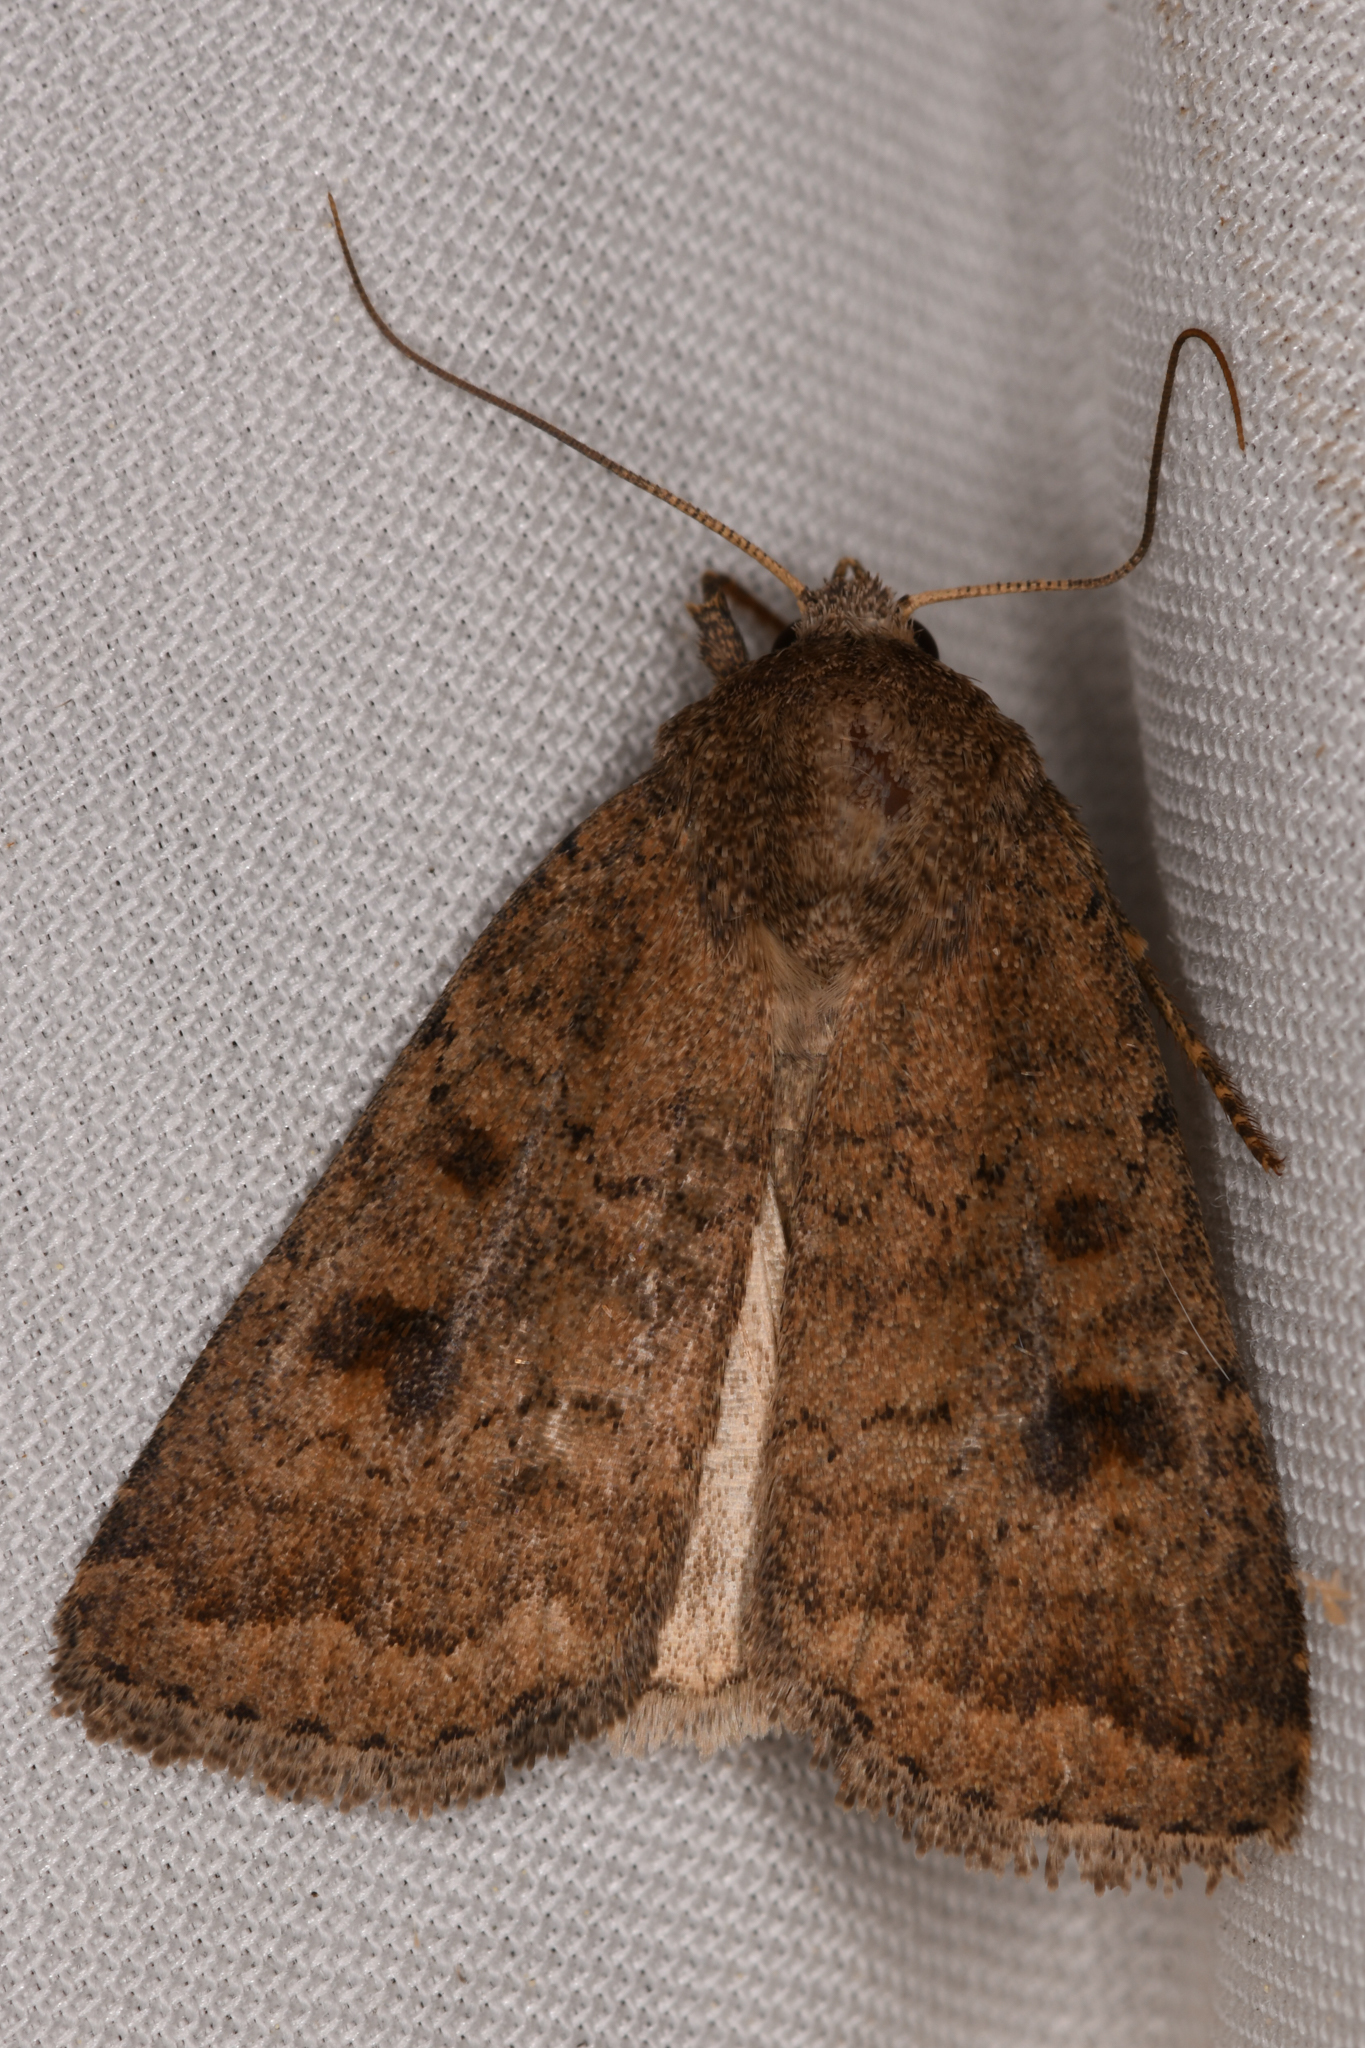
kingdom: Animalia
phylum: Arthropoda
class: Insecta
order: Lepidoptera
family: Noctuidae
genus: Caradrina
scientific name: Caradrina morpheus
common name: Mottled rustic
